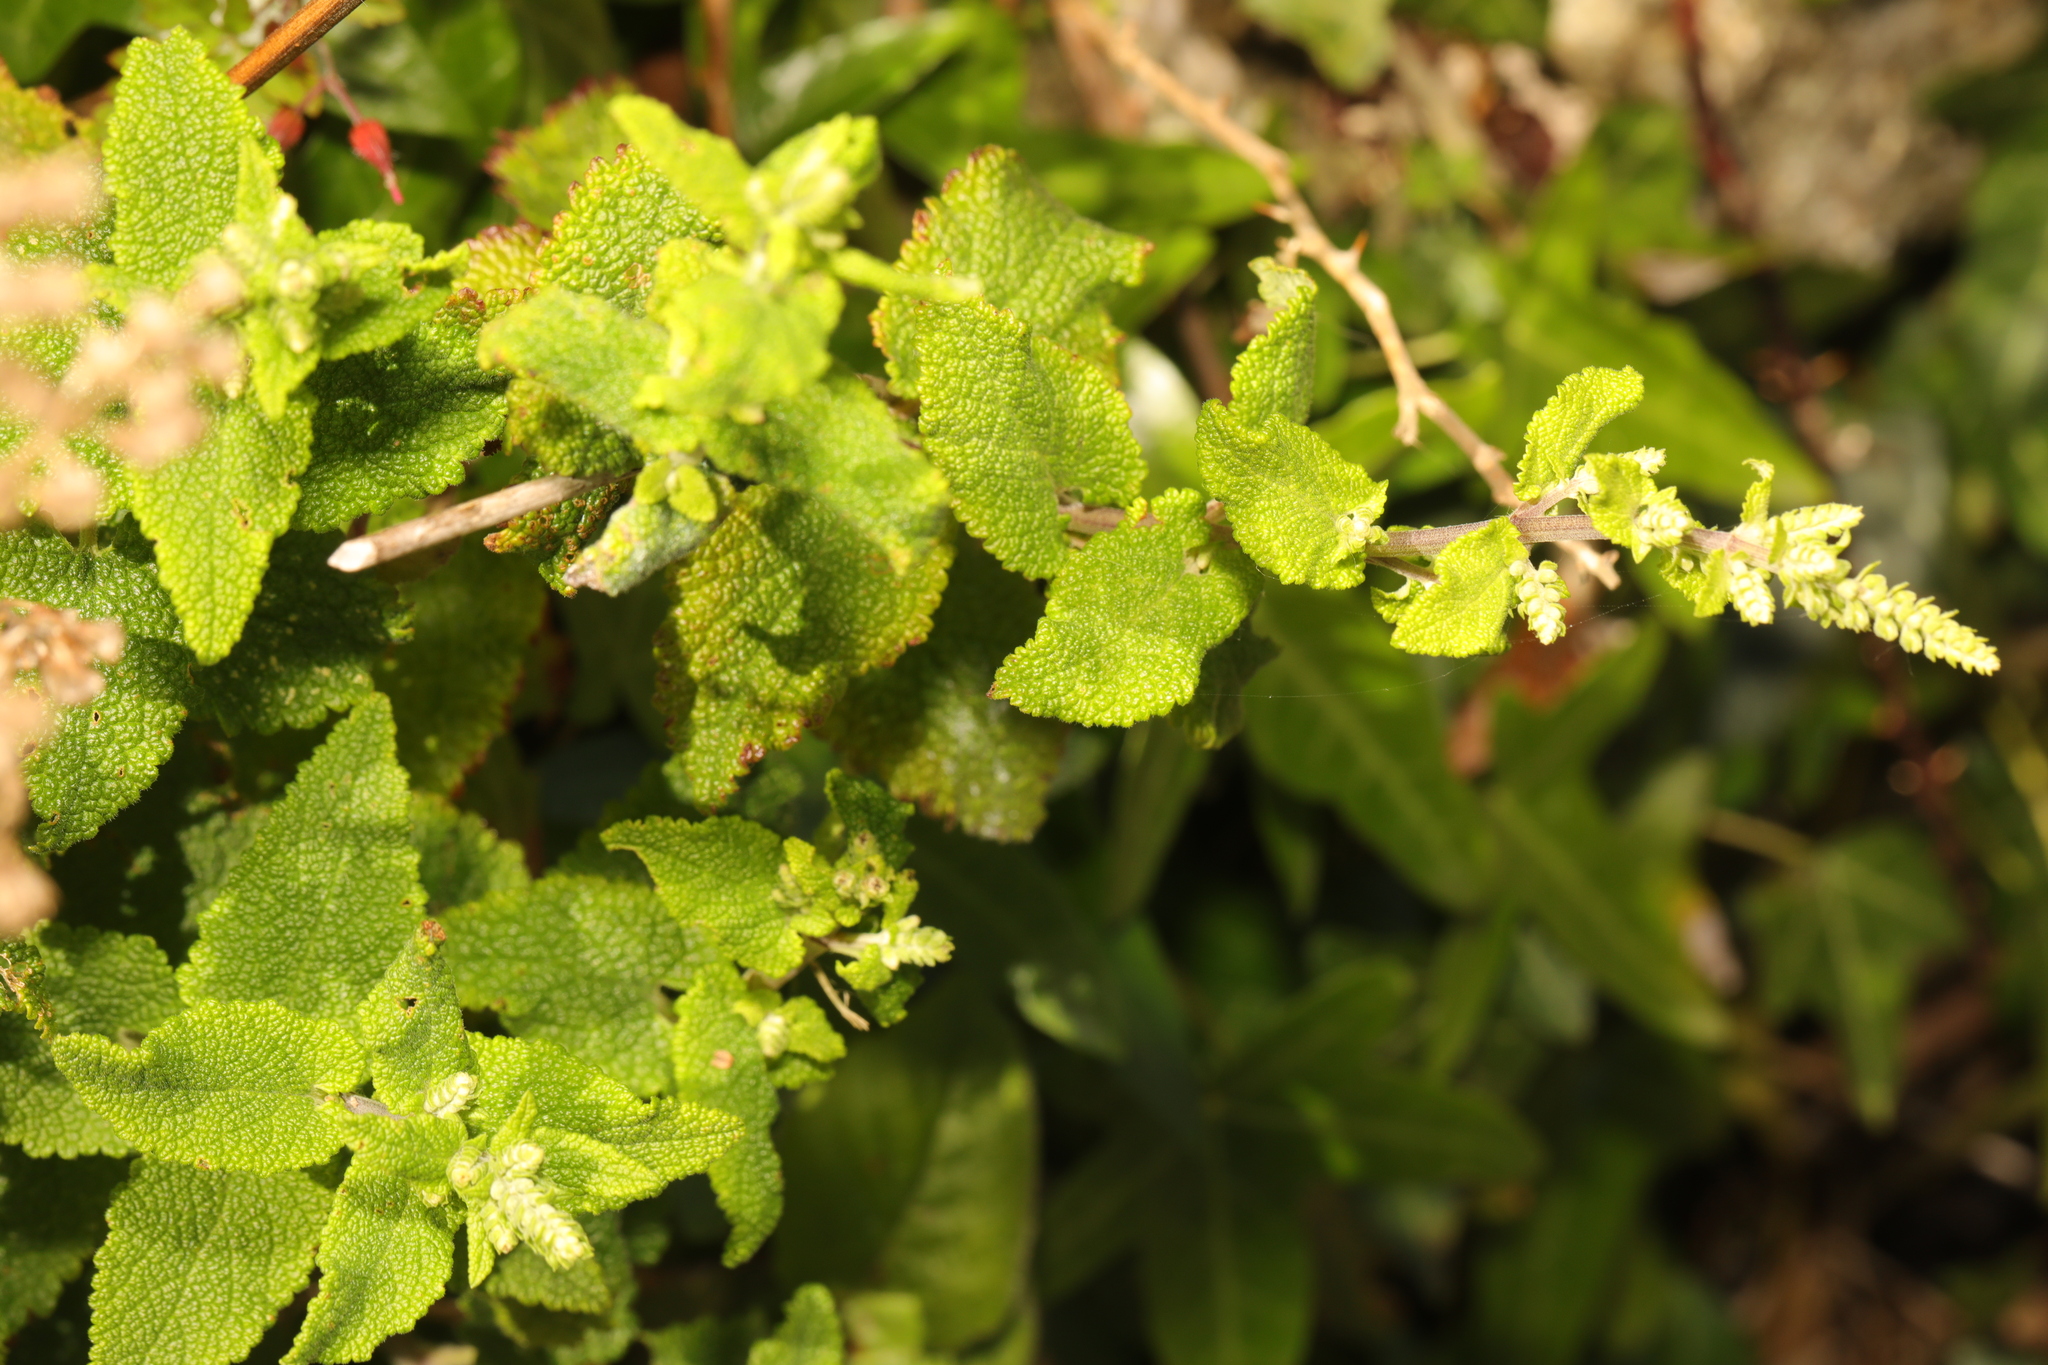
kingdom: Plantae
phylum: Tracheophyta
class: Magnoliopsida
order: Lamiales
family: Lamiaceae
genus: Teucrium
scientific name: Teucrium scorodonia
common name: Woodland germander
